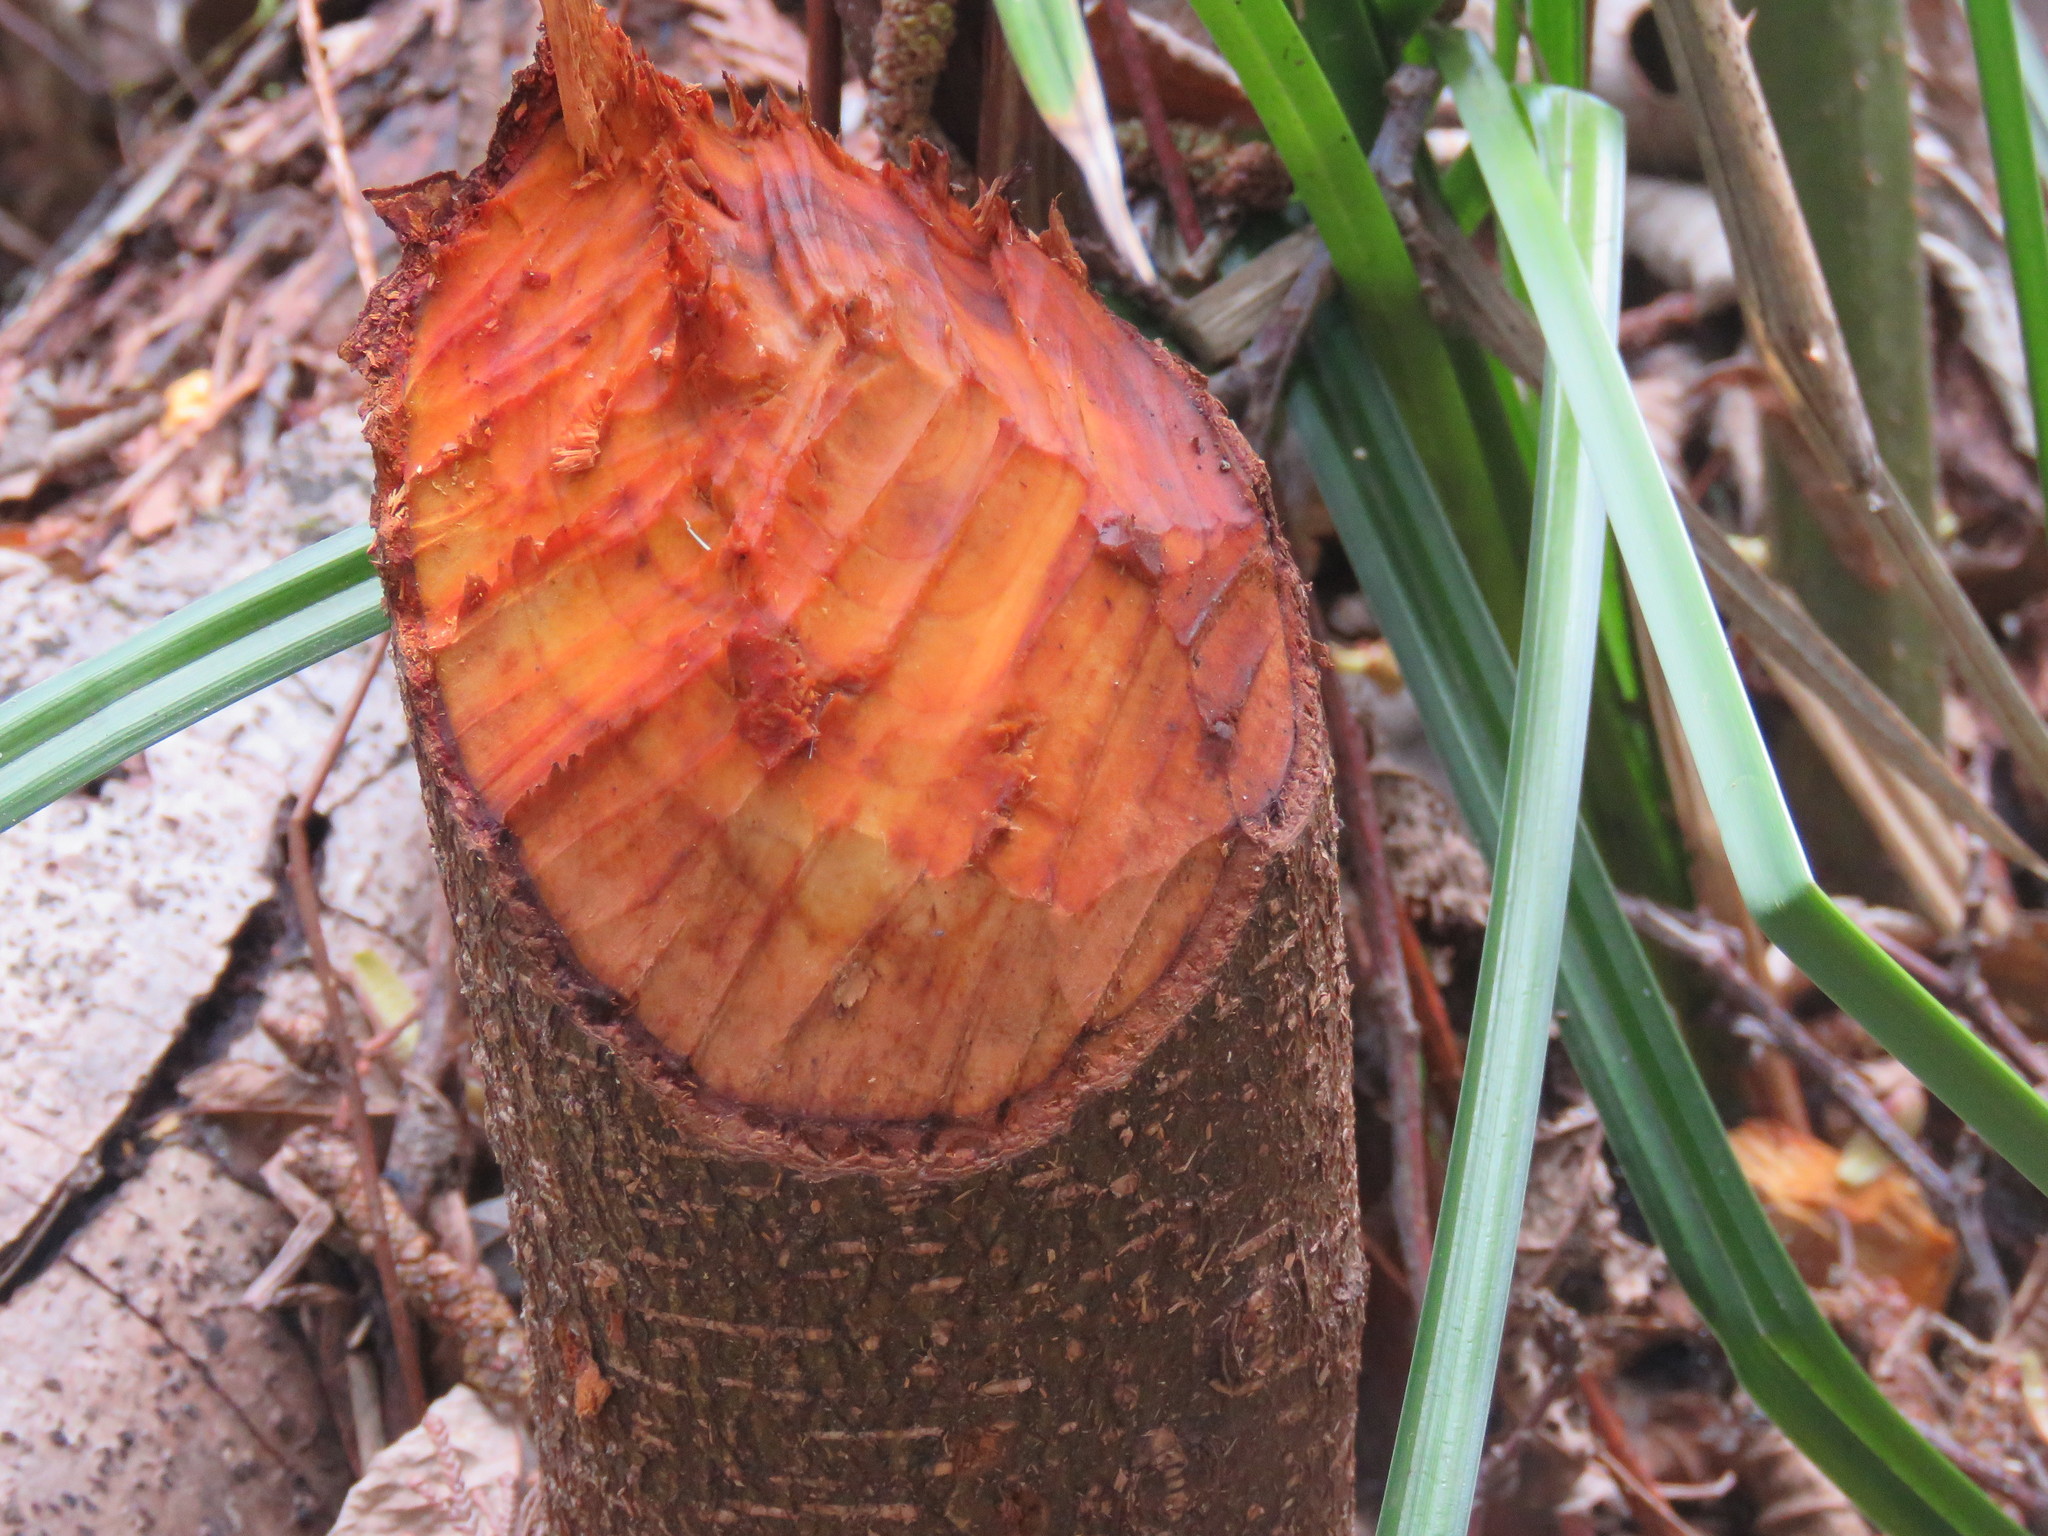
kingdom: Animalia
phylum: Chordata
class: Mammalia
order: Rodentia
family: Castoridae
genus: Castor
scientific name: Castor canadensis
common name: American beaver
